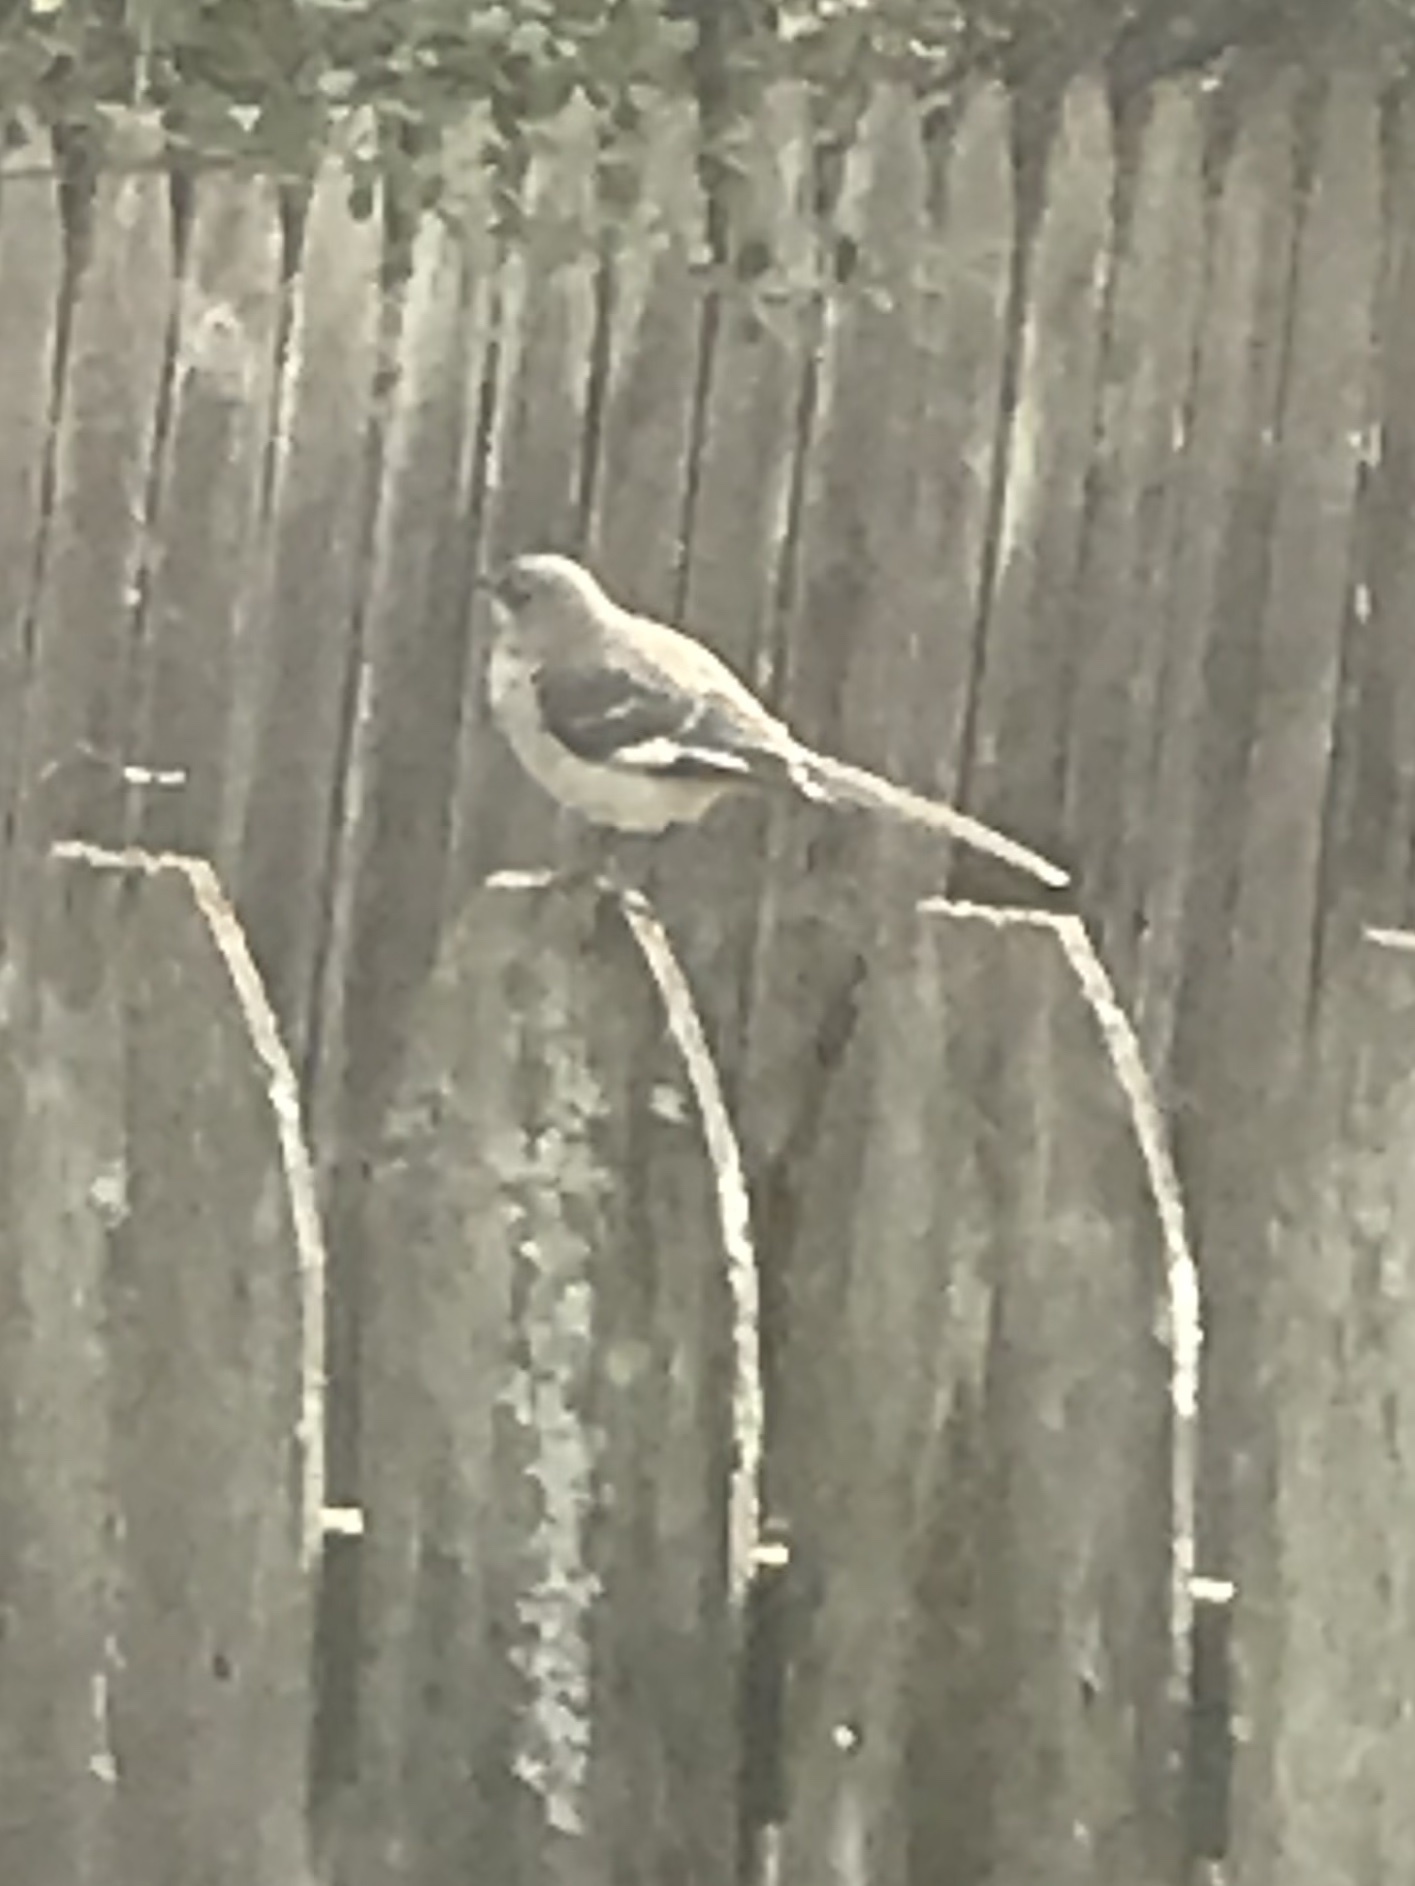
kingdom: Animalia
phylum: Chordata
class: Aves
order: Passeriformes
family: Mimidae
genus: Mimus
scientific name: Mimus polyglottos
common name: Northern mockingbird
